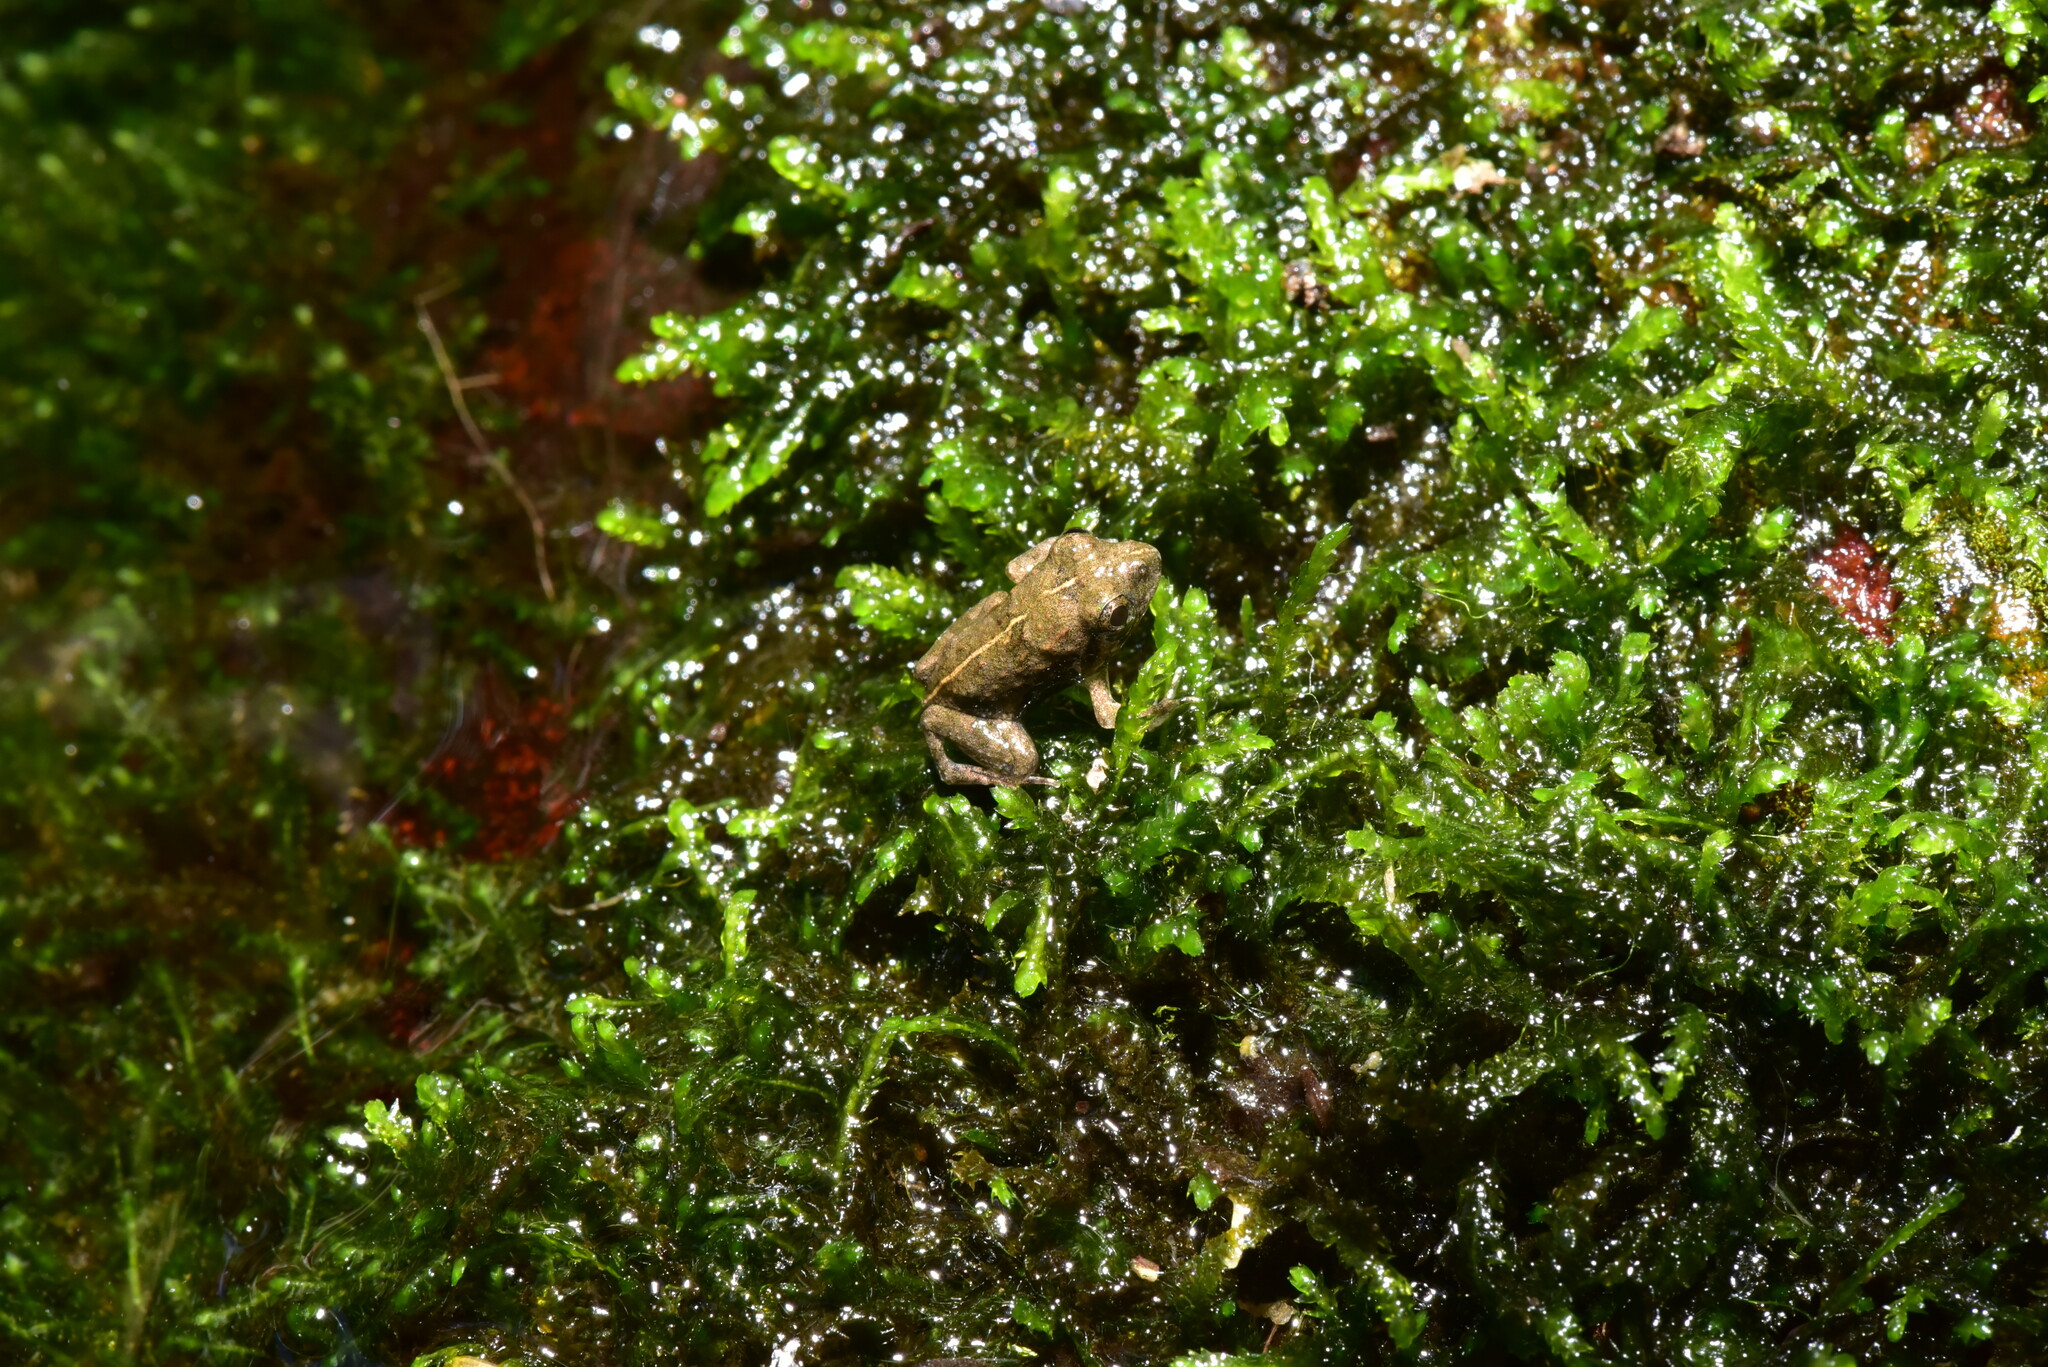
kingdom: Animalia
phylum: Chordata
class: Amphibia
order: Anura
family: Dicroglossidae
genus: Fejervarya
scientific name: Fejervarya limnocharis
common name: Asian grass frog/common pond frog/field frog/grass frog/indian rice frog
